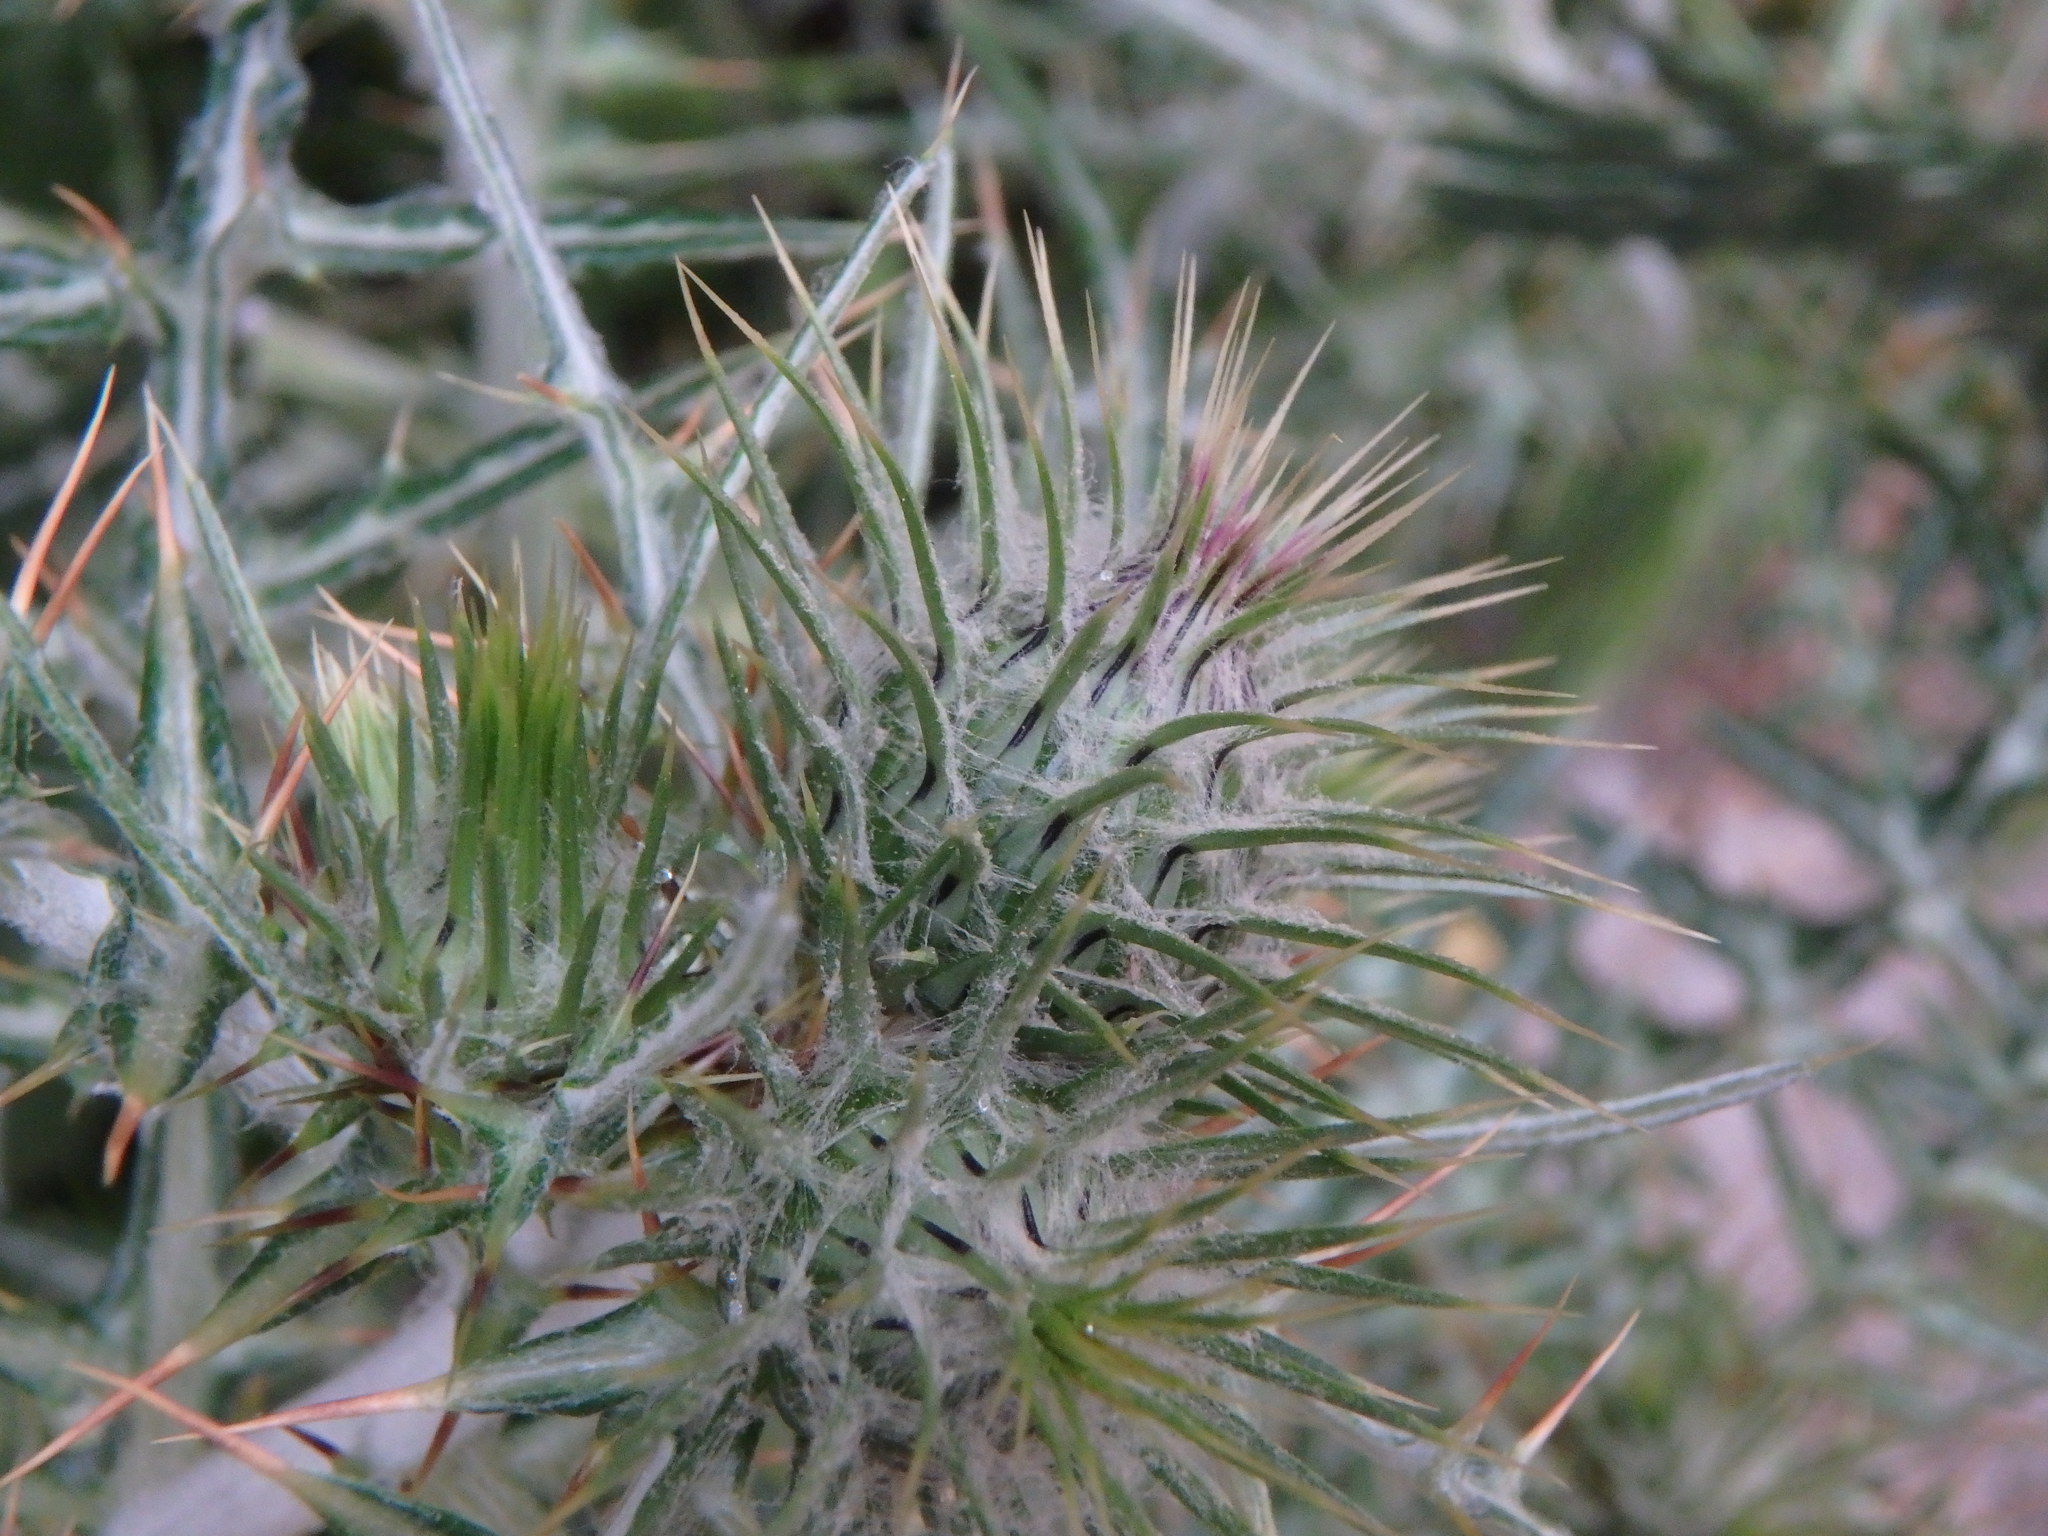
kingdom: Plantae
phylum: Tracheophyta
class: Magnoliopsida
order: Asterales
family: Asteraceae
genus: Galactites
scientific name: Galactites tomentosa
